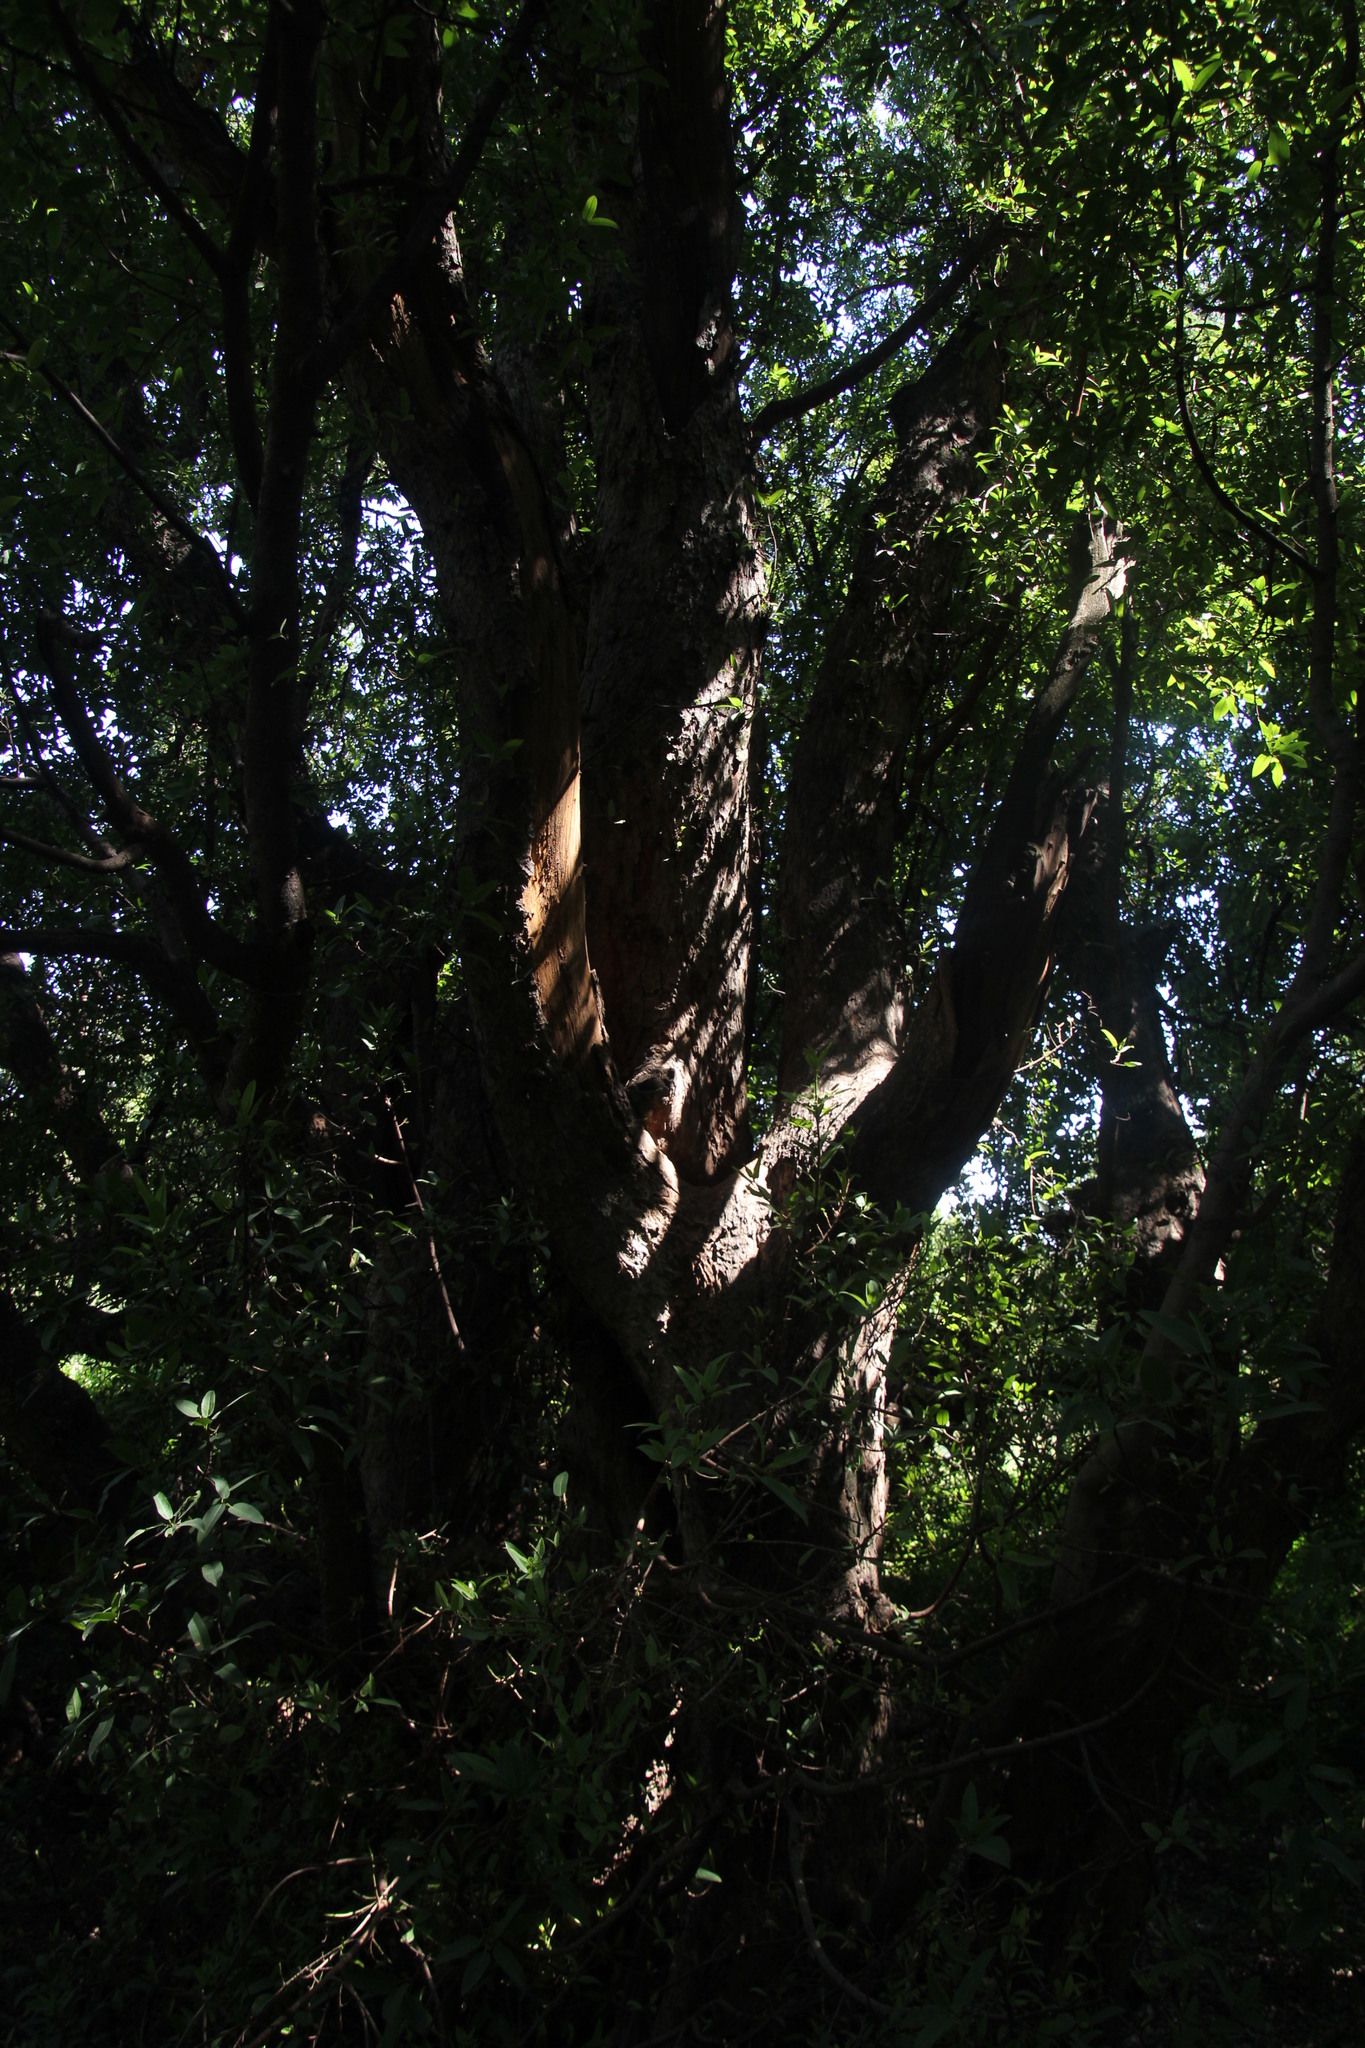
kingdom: Plantae
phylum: Tracheophyta
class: Magnoliopsida
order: Rosales
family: Moraceae
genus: Ficus
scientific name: Ficus salicifolia
